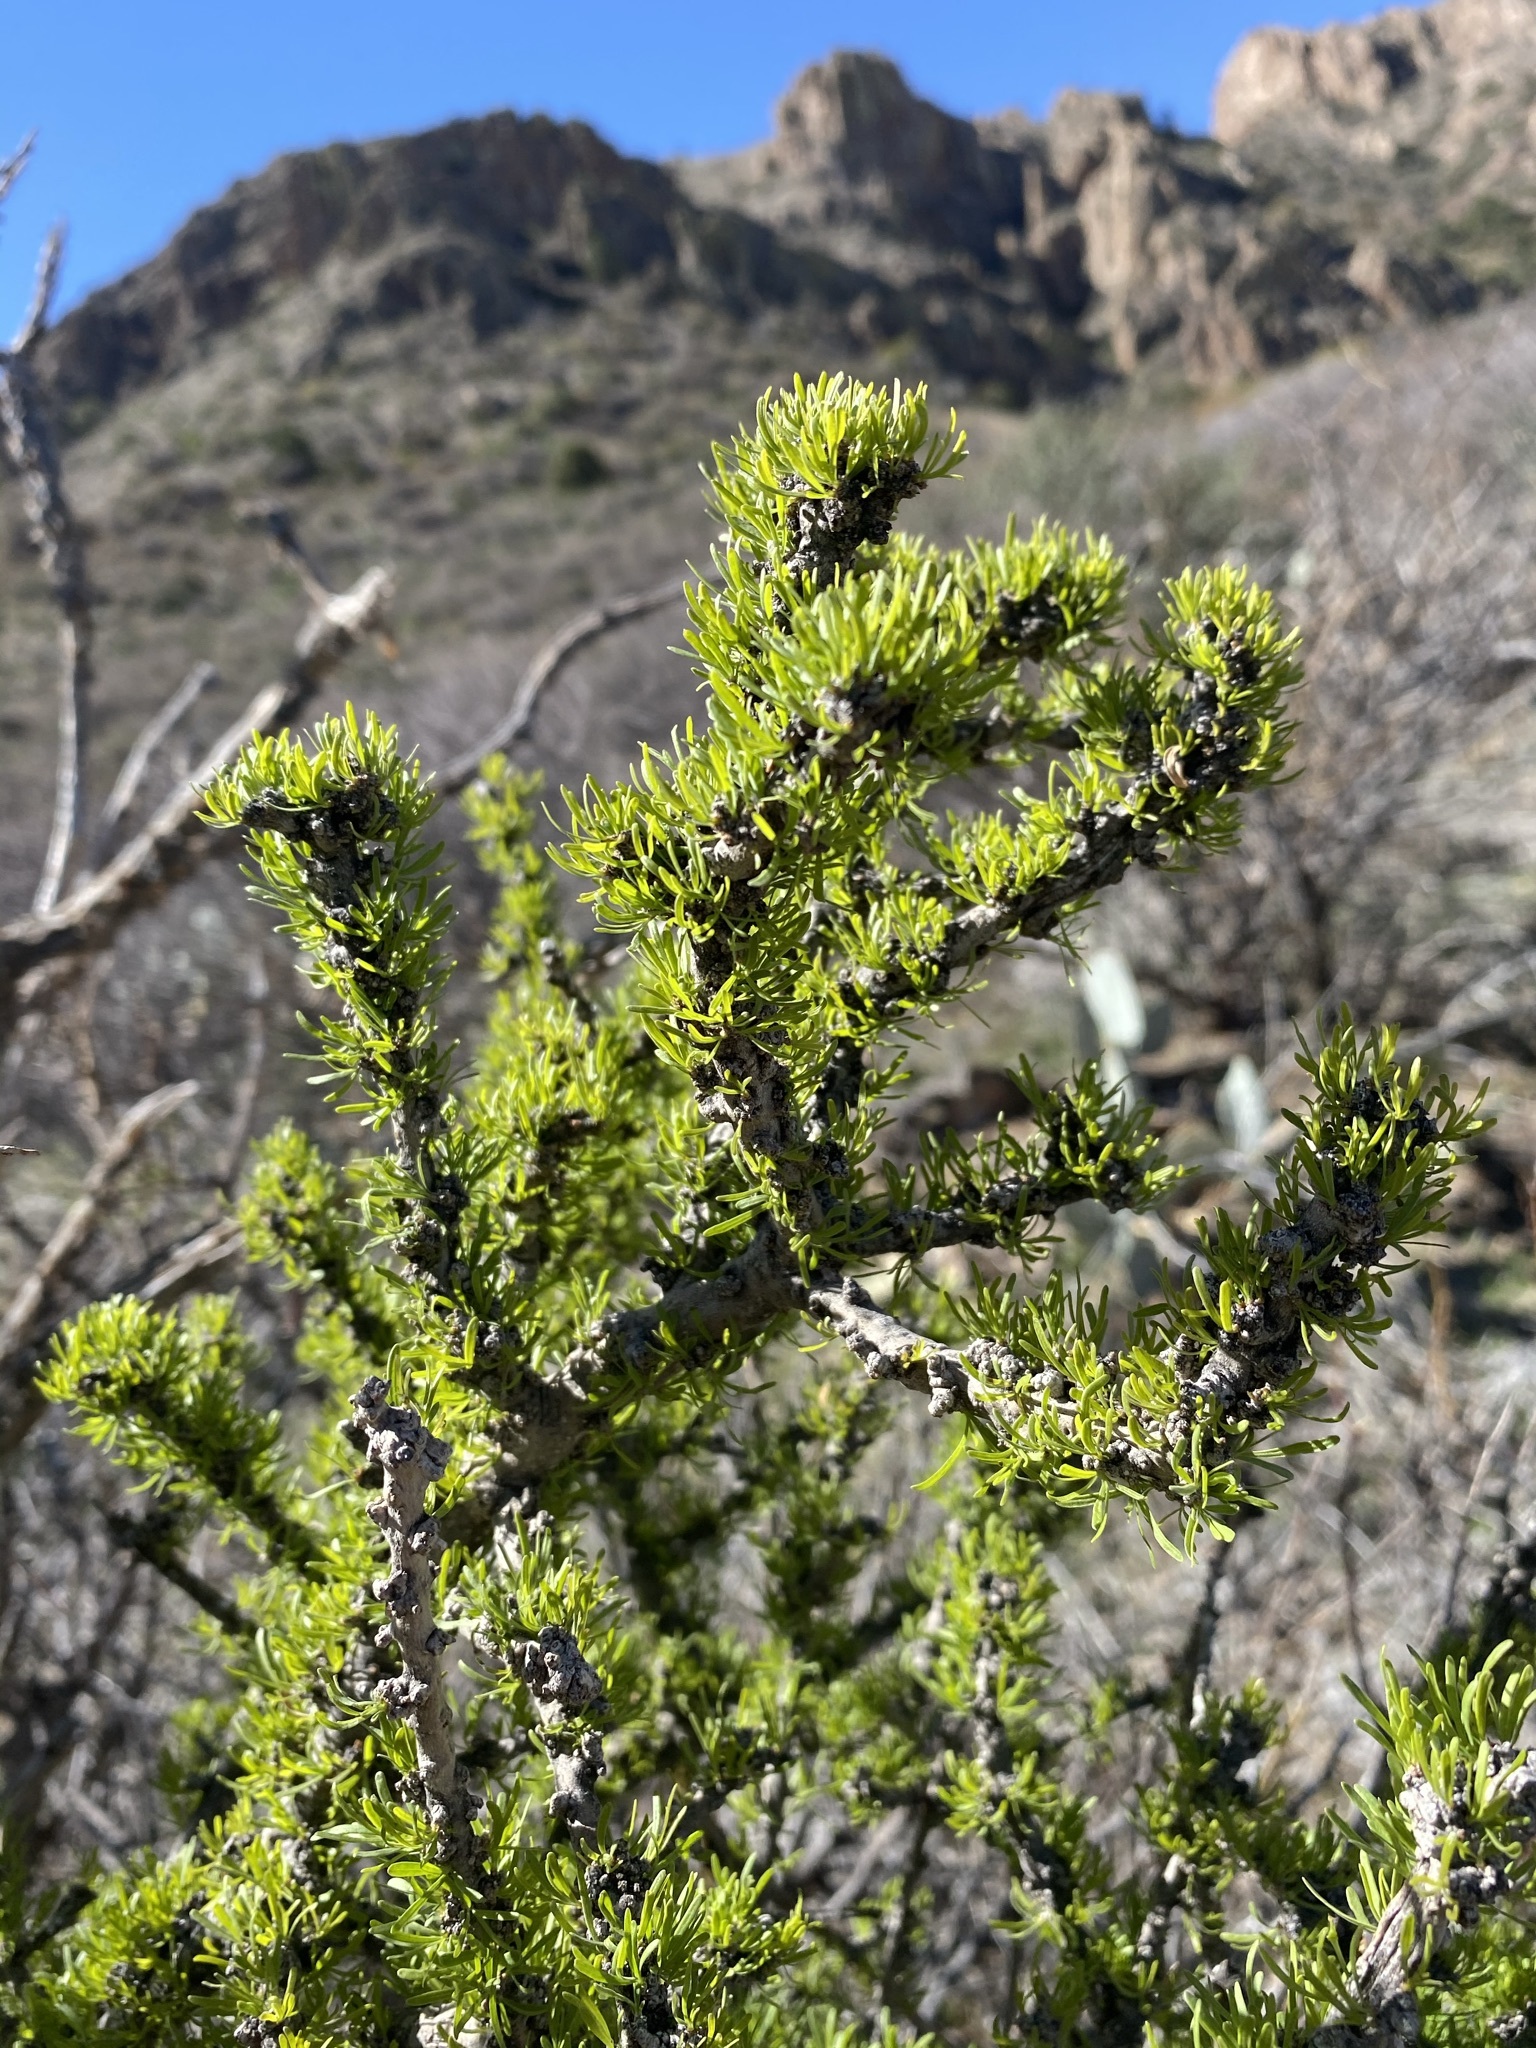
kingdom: Plantae
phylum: Tracheophyta
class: Magnoliopsida
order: Lamiales
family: Oleaceae
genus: Forestiera
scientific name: Forestiera angustifolia
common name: Elbowbush
